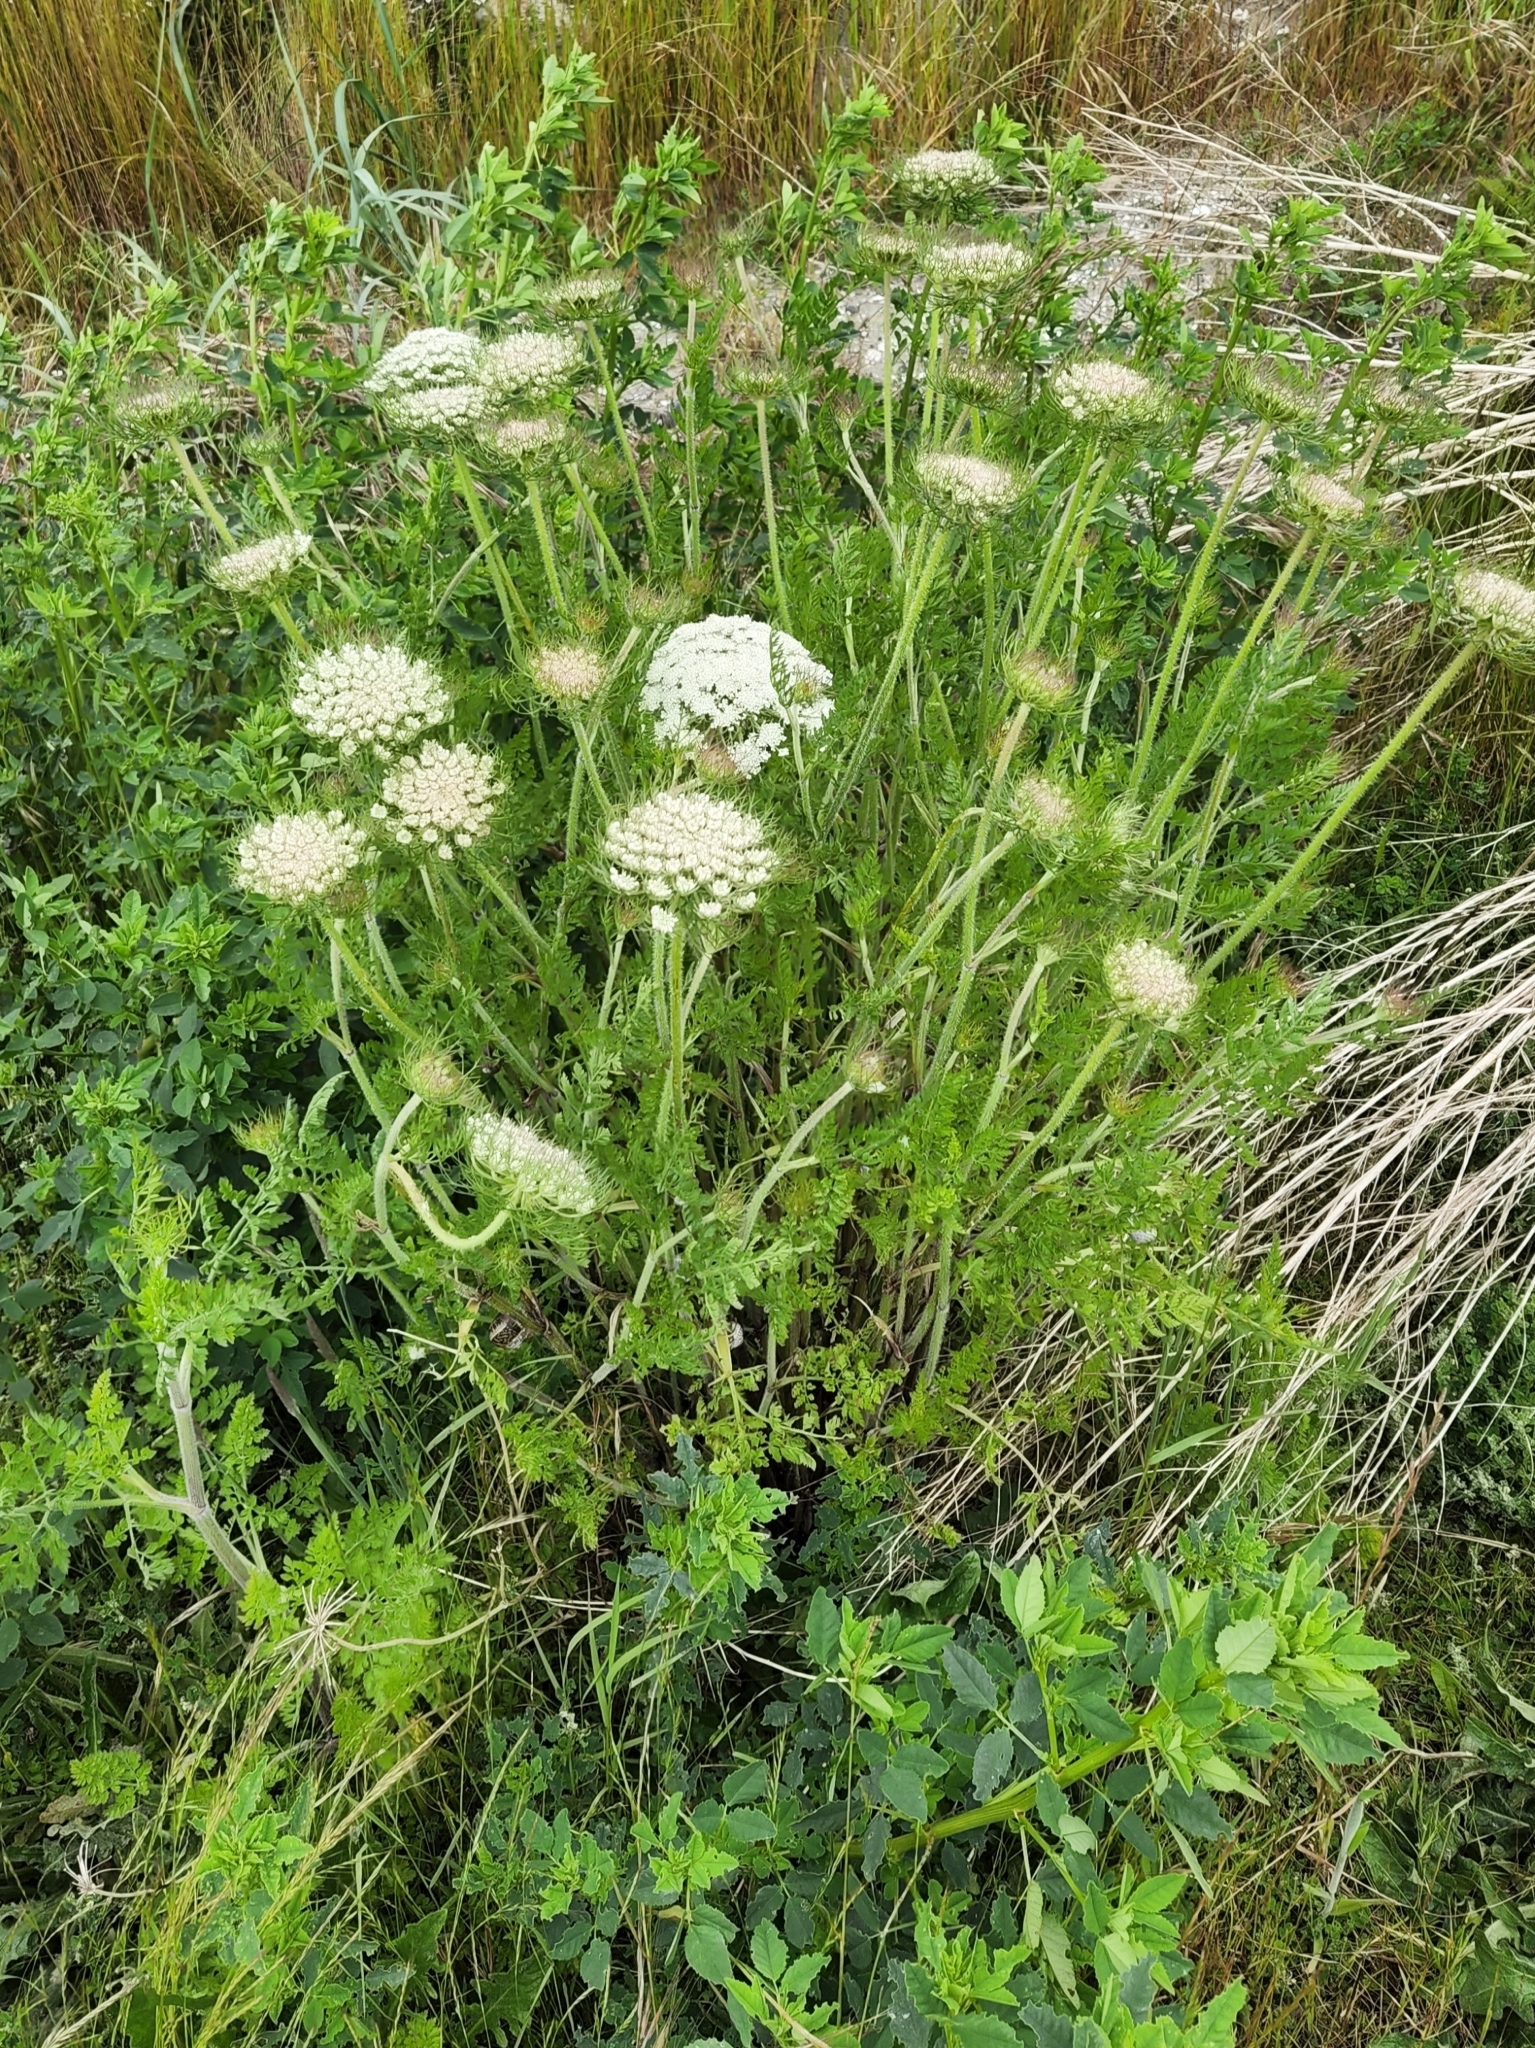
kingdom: Plantae
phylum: Tracheophyta
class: Magnoliopsida
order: Apiales
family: Apiaceae
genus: Daucus
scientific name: Daucus carota
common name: Wild carrot
